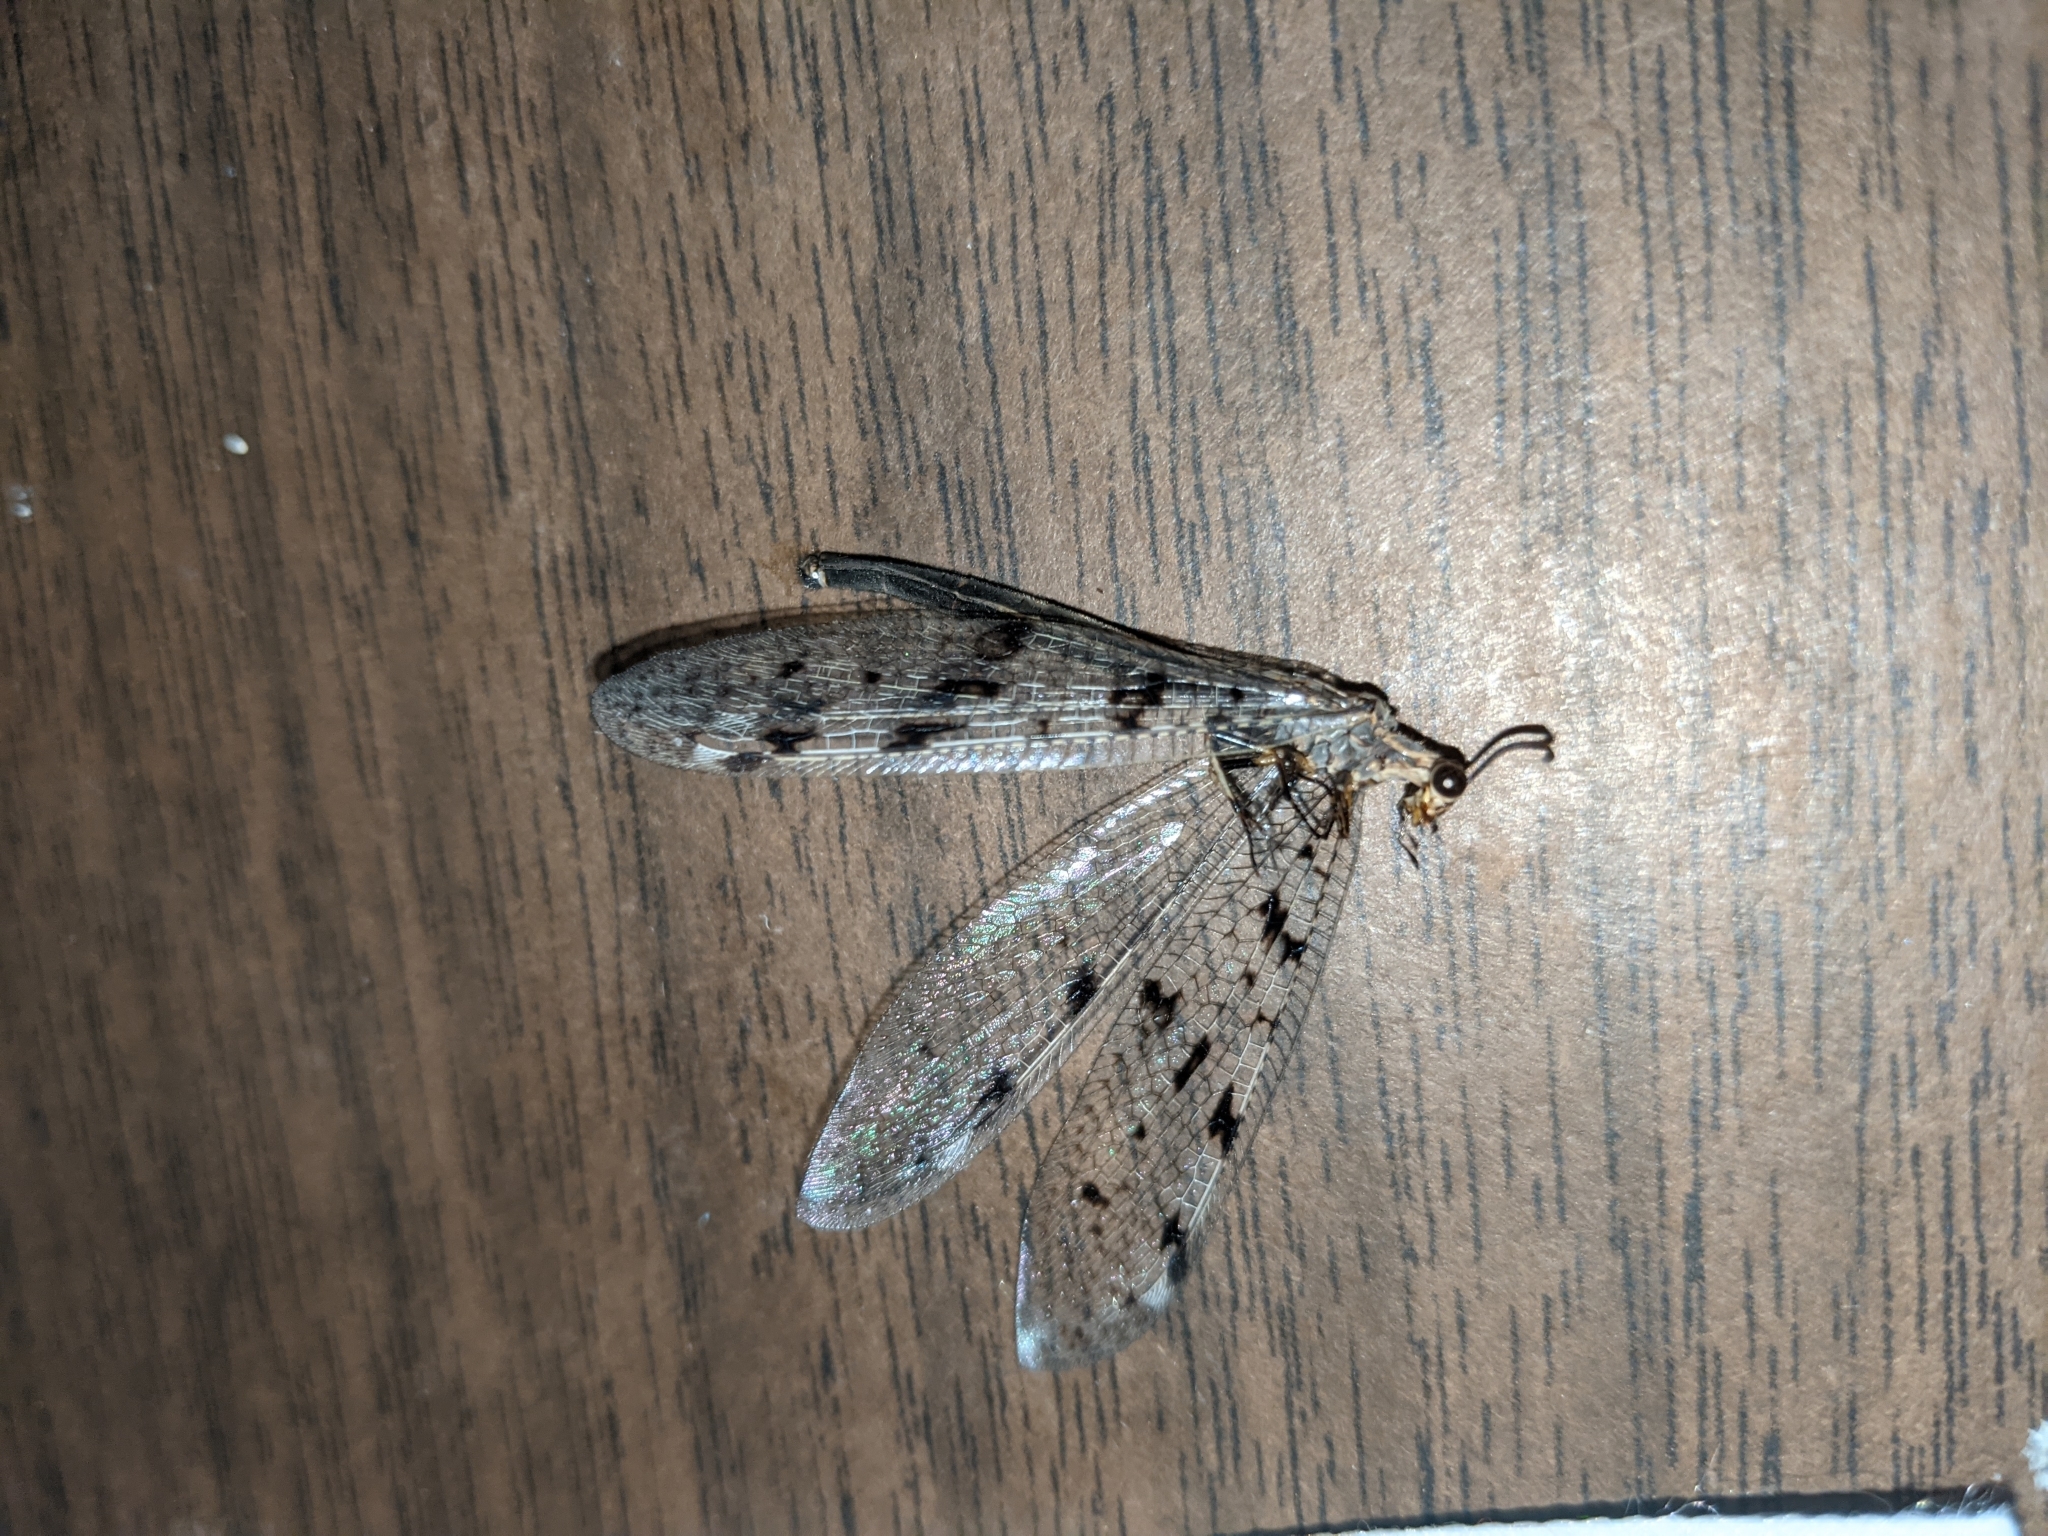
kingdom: Animalia
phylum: Arthropoda
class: Insecta
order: Neuroptera
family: Myrmeleontidae
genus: Euroleon
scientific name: Euroleon nostras
